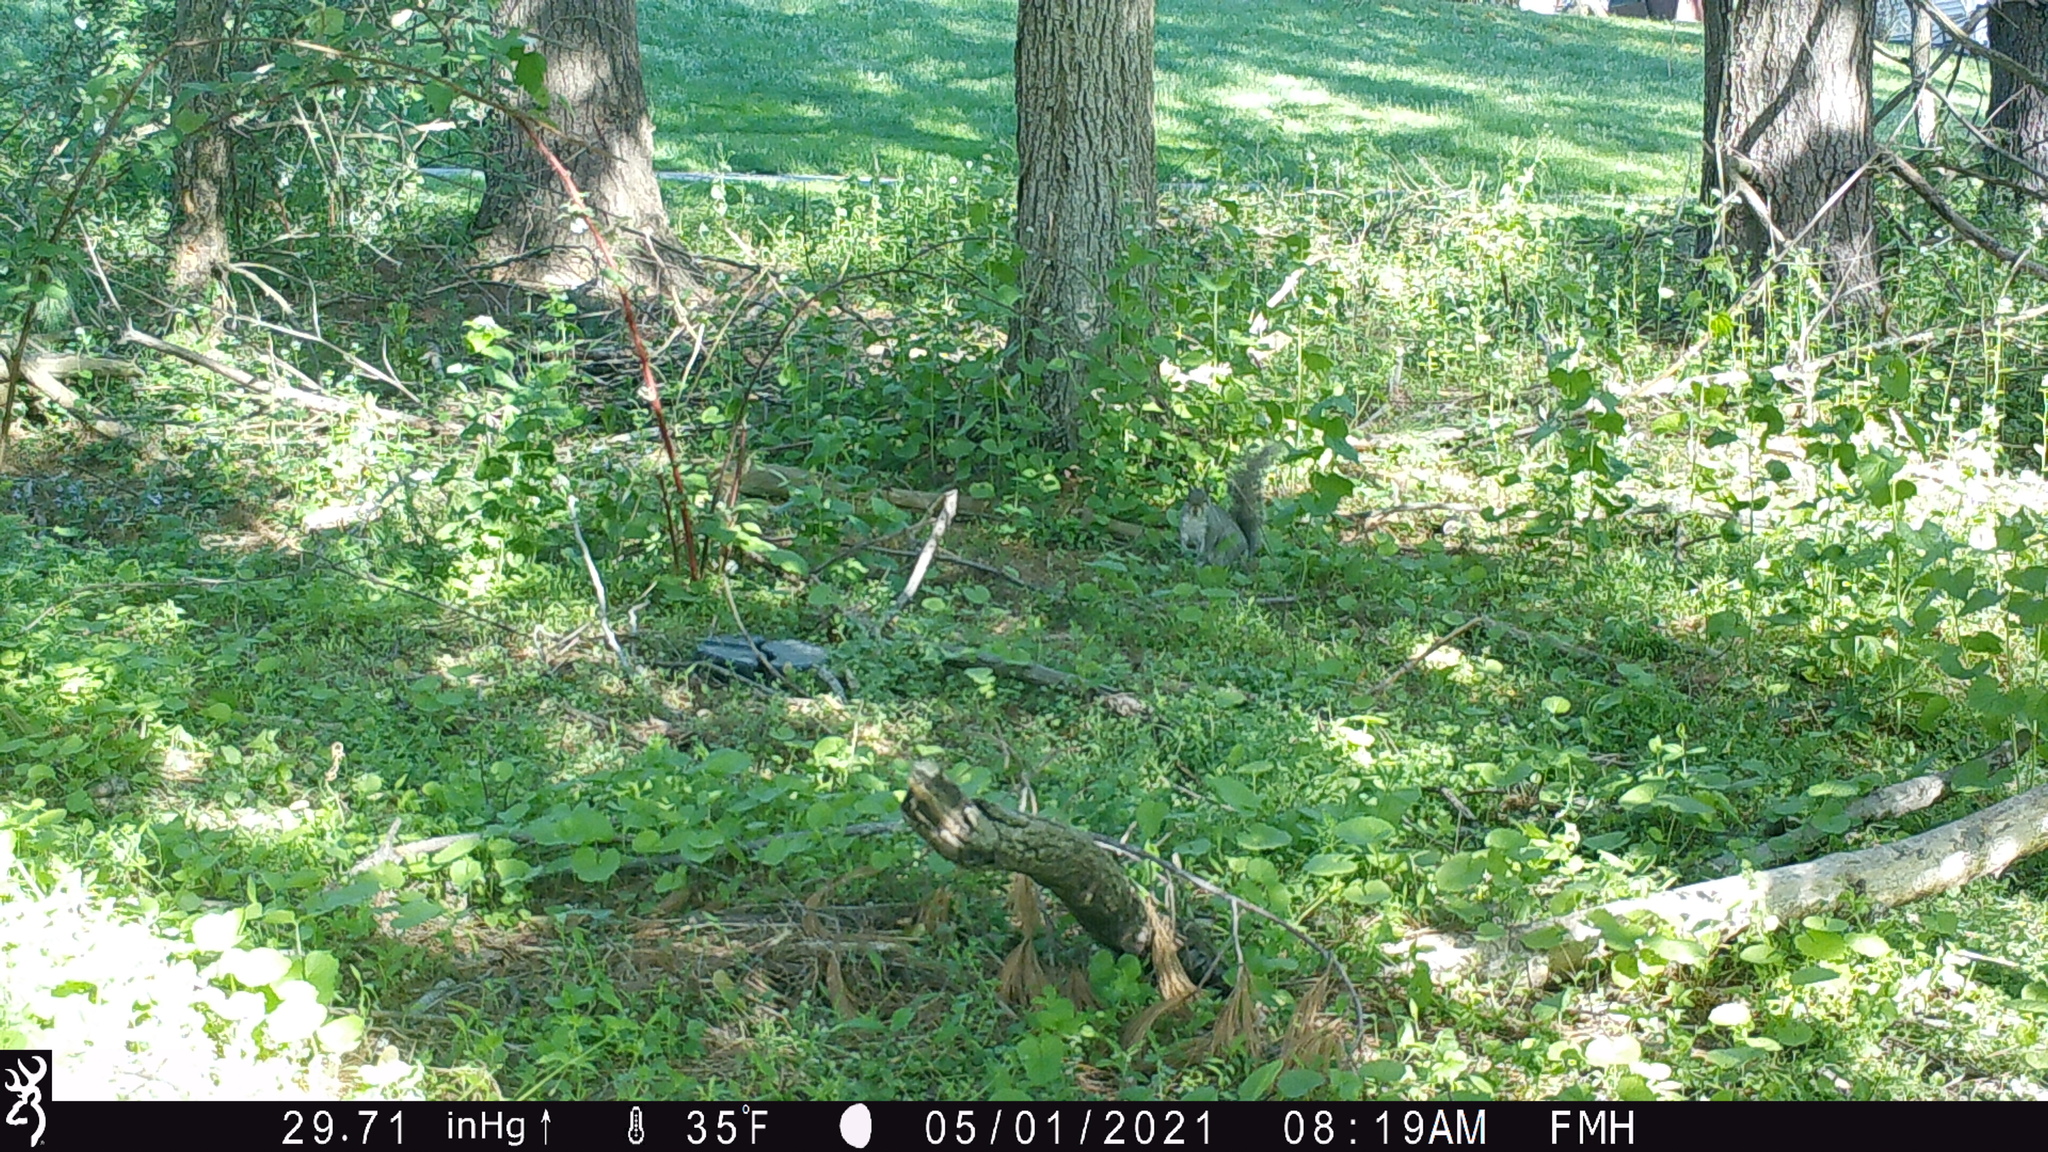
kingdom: Animalia
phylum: Chordata
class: Mammalia
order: Rodentia
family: Sciuridae
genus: Sciurus
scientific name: Sciurus carolinensis
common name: Eastern gray squirrel
